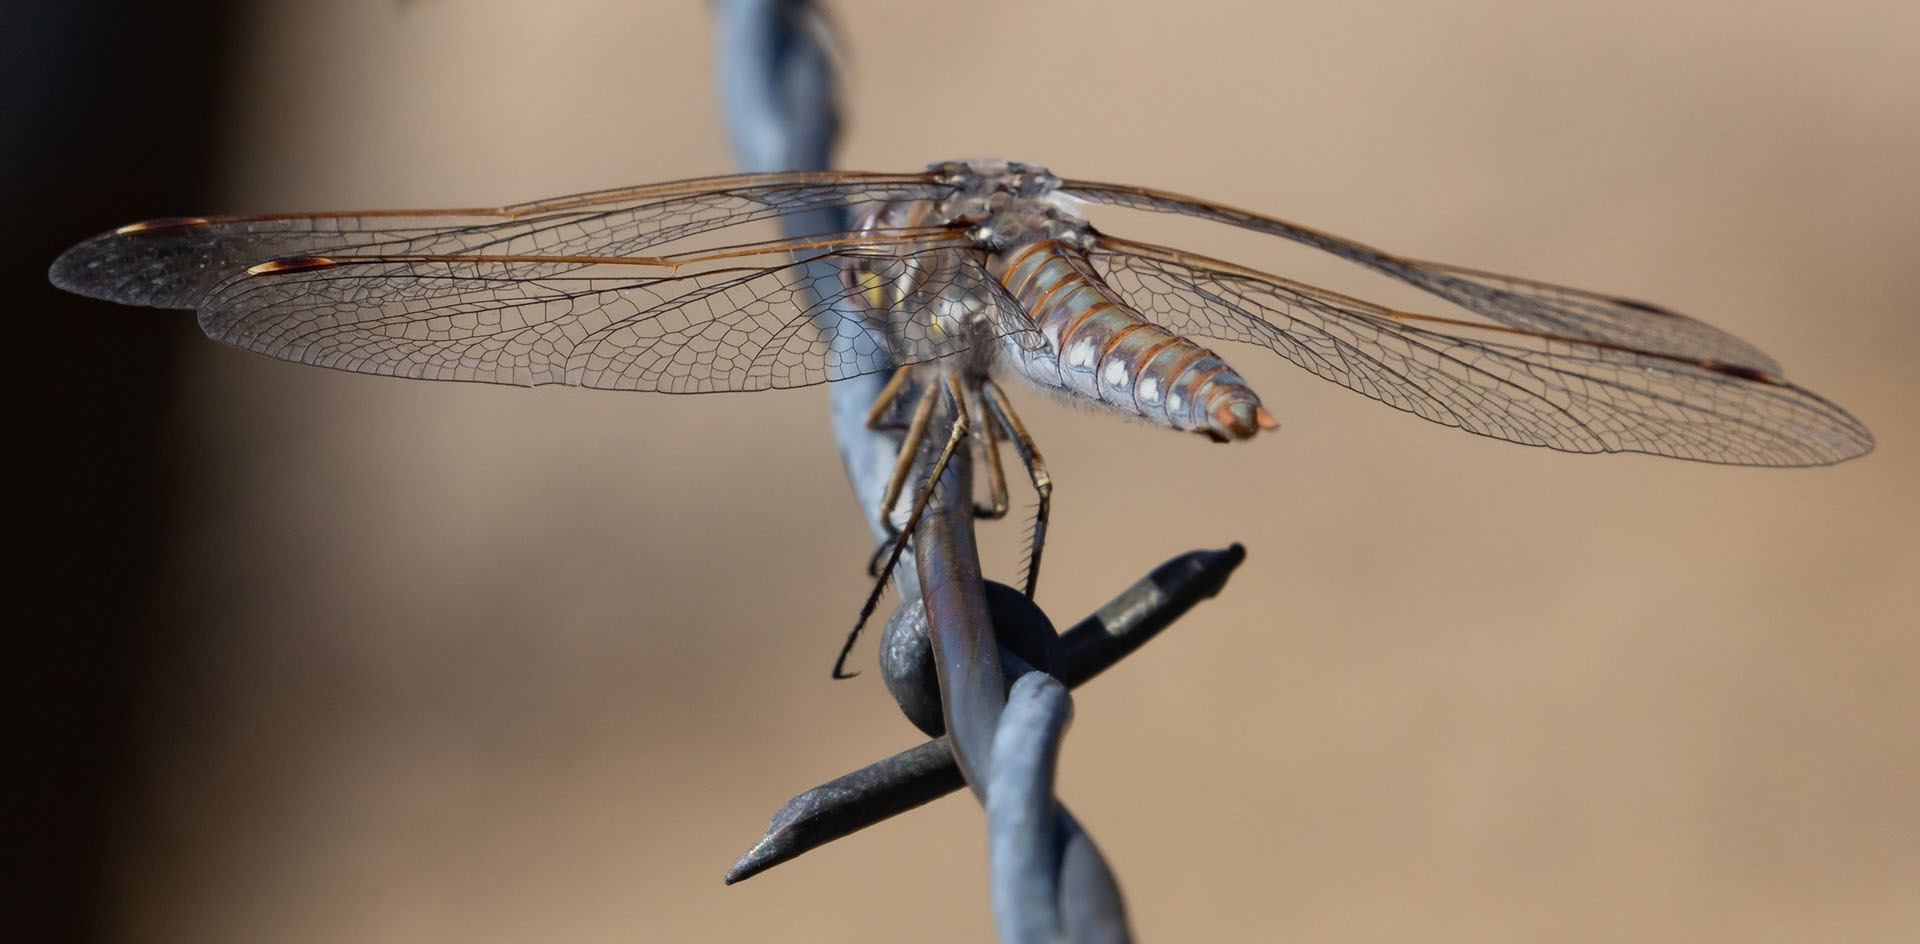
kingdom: Animalia
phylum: Arthropoda
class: Insecta
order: Odonata
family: Libellulidae
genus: Sympetrum
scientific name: Sympetrum corruptum
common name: Variegated meadowhawk
